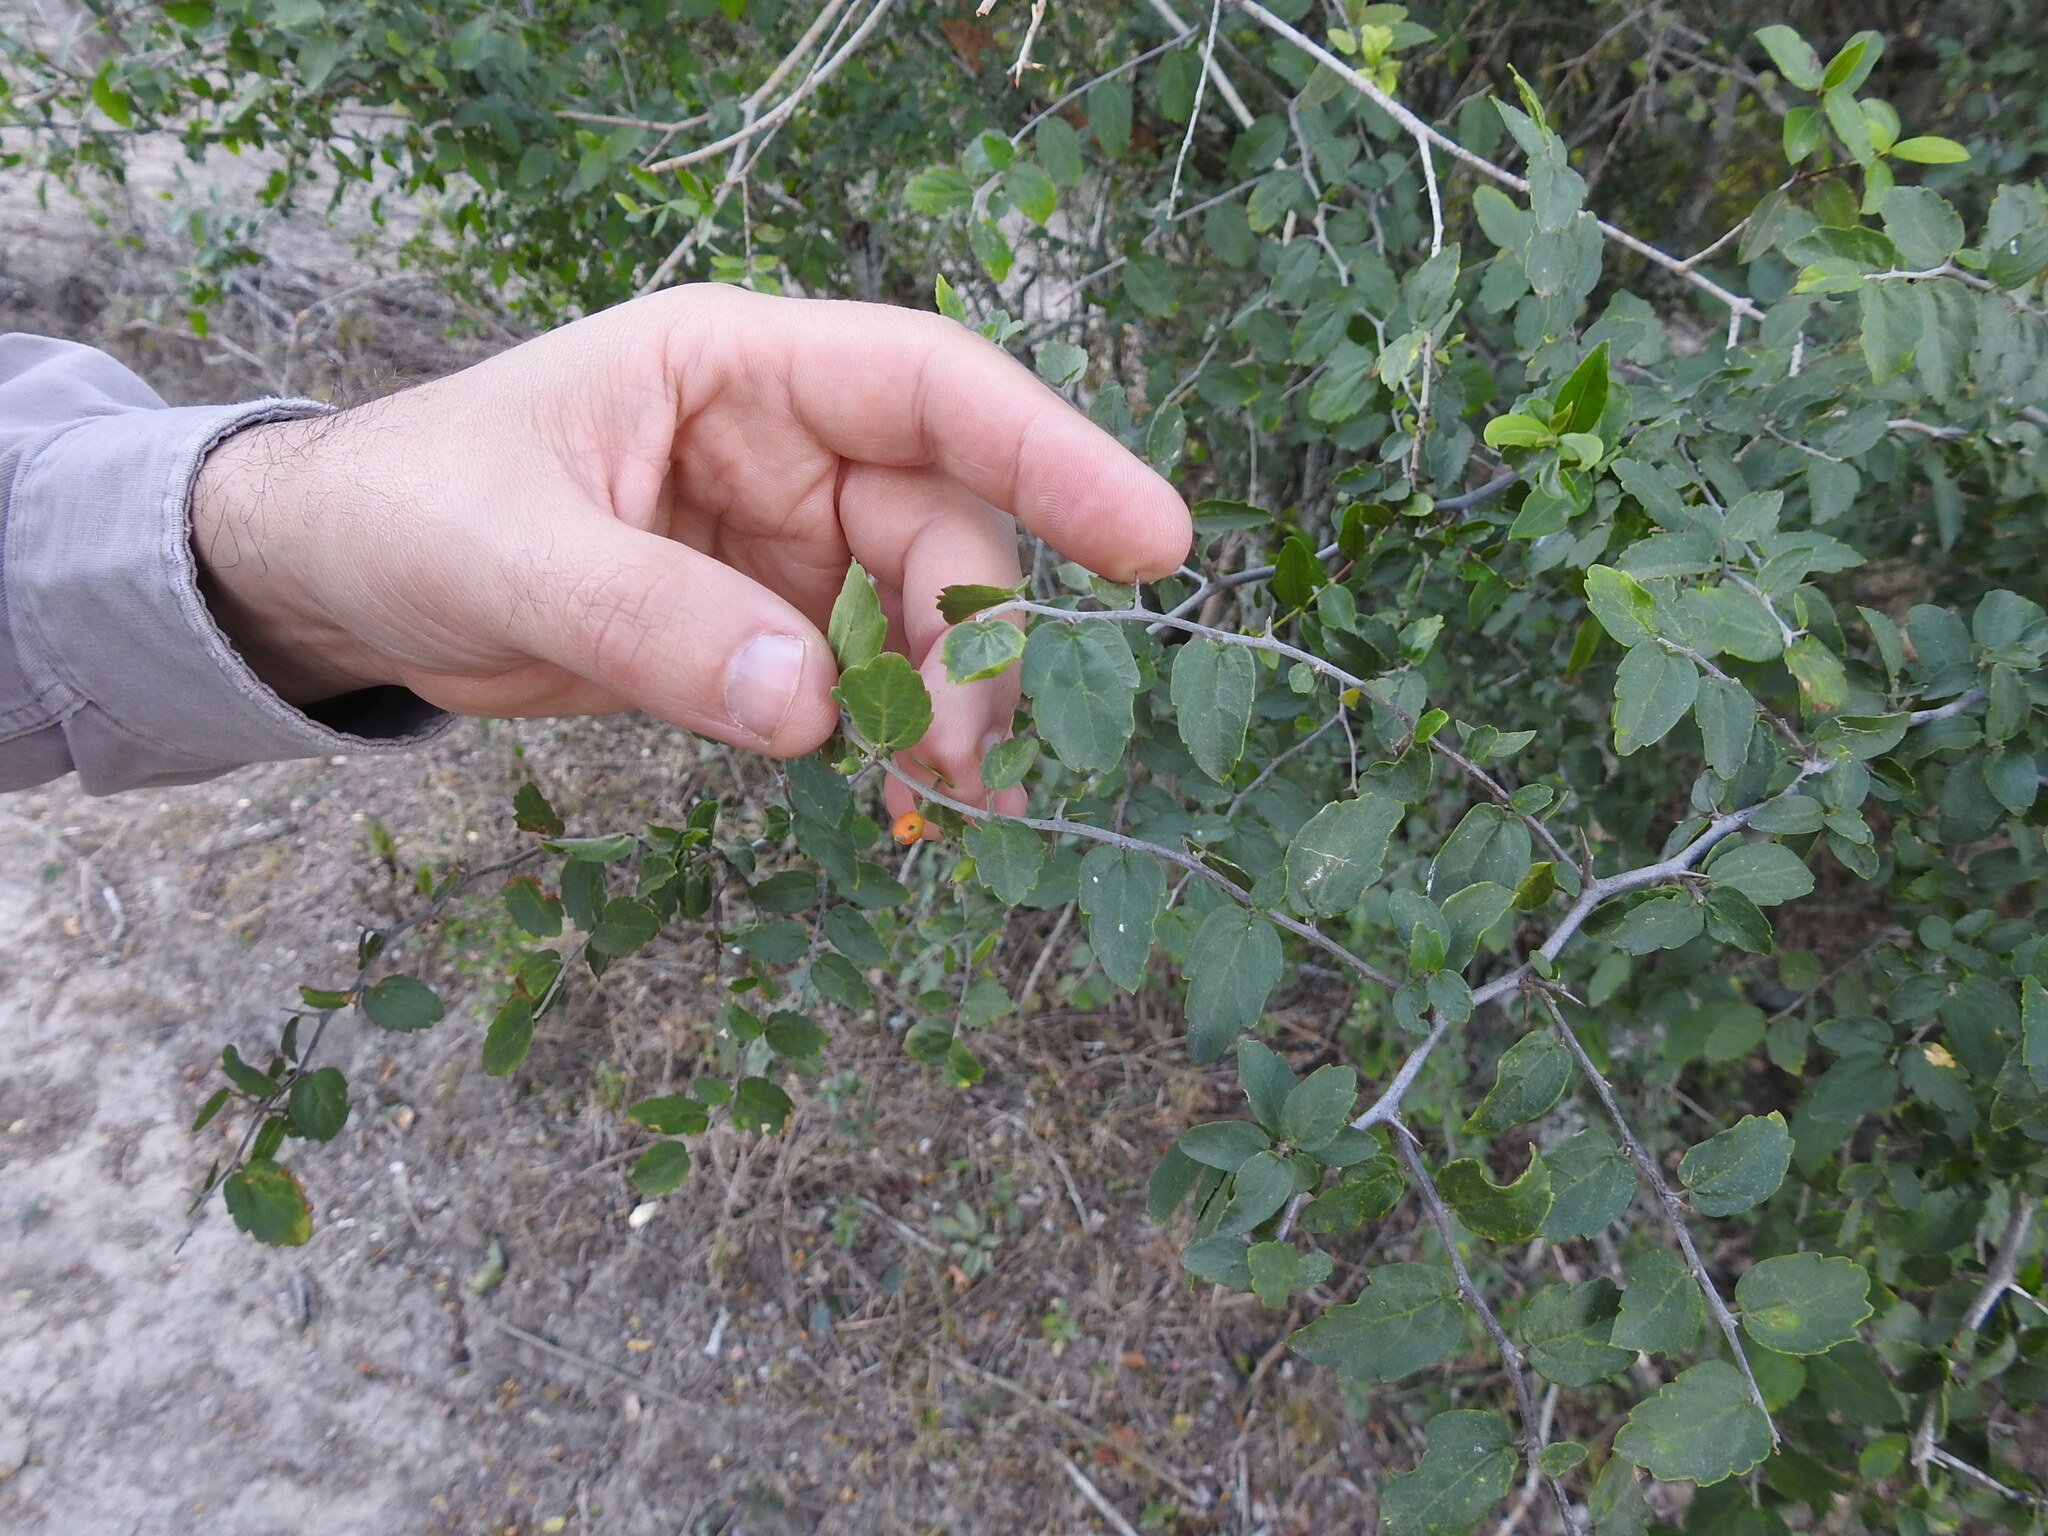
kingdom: Plantae
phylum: Tracheophyta
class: Magnoliopsida
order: Rosales
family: Cannabaceae
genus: Celtis
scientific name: Celtis pallida
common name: Desert hackberry
